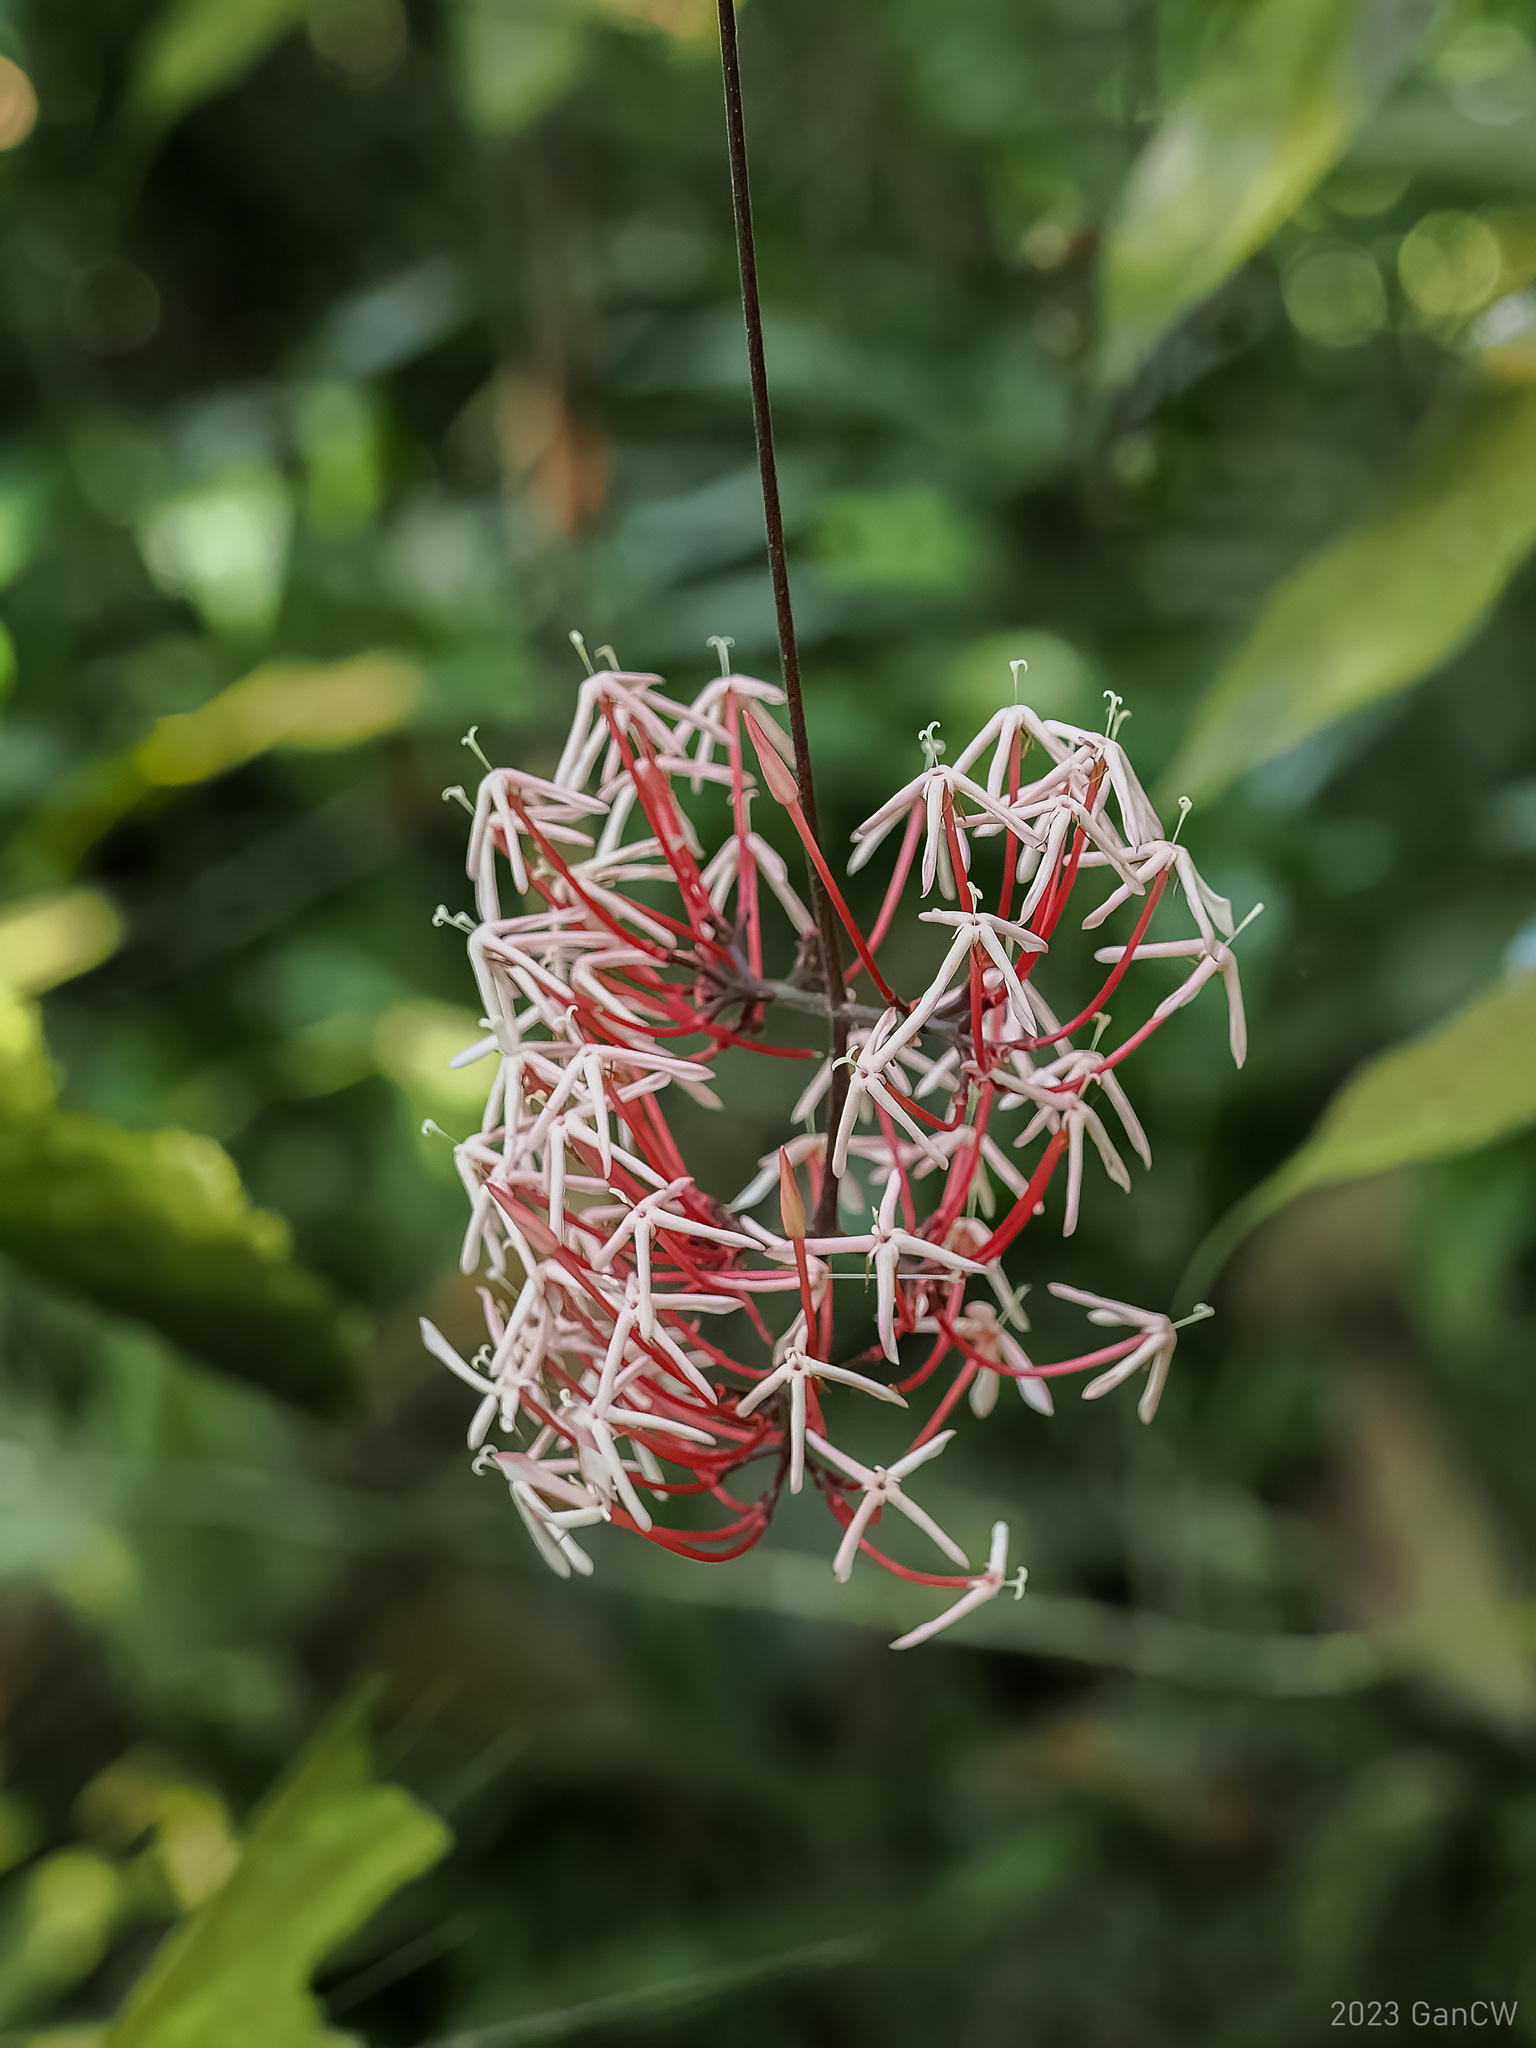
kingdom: Plantae
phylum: Tracheophyta
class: Magnoliopsida
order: Gentianales
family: Rubiaceae
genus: Ixora
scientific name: Ixora pendula
